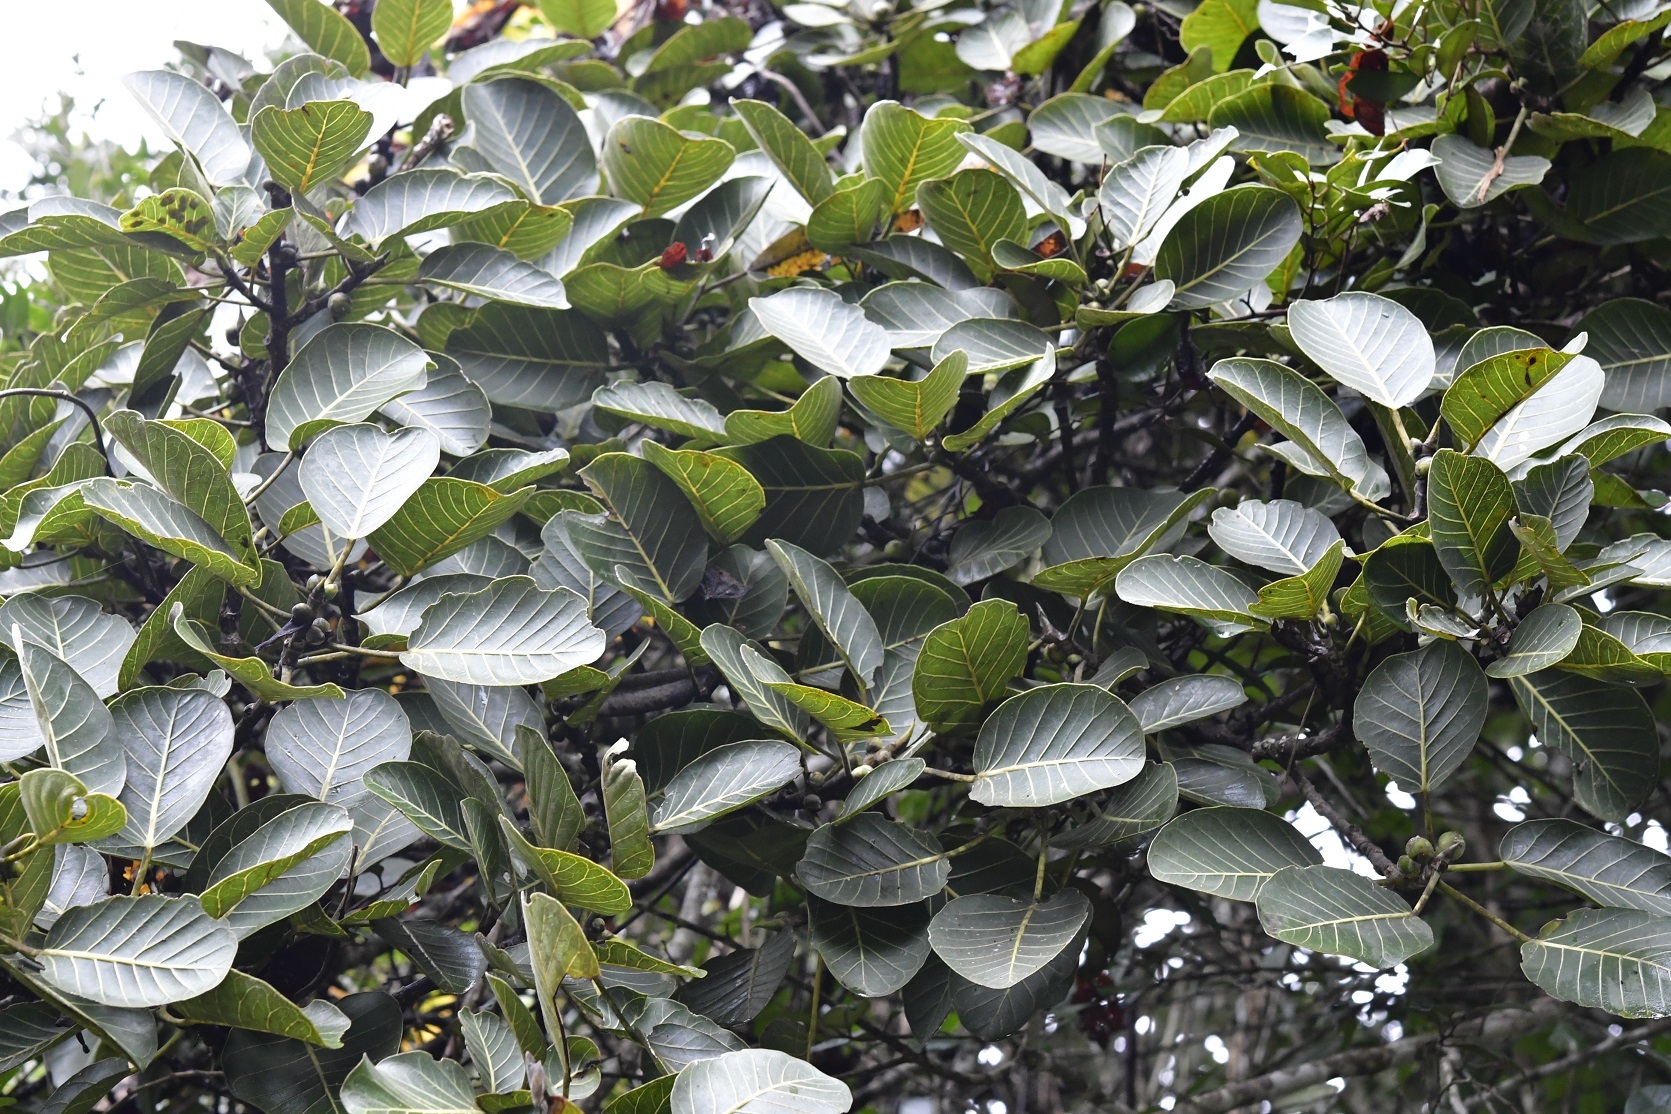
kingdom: Plantae
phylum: Tracheophyta
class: Magnoliopsida
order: Rosales
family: Moraceae
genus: Ficus
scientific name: Ficus aurea
